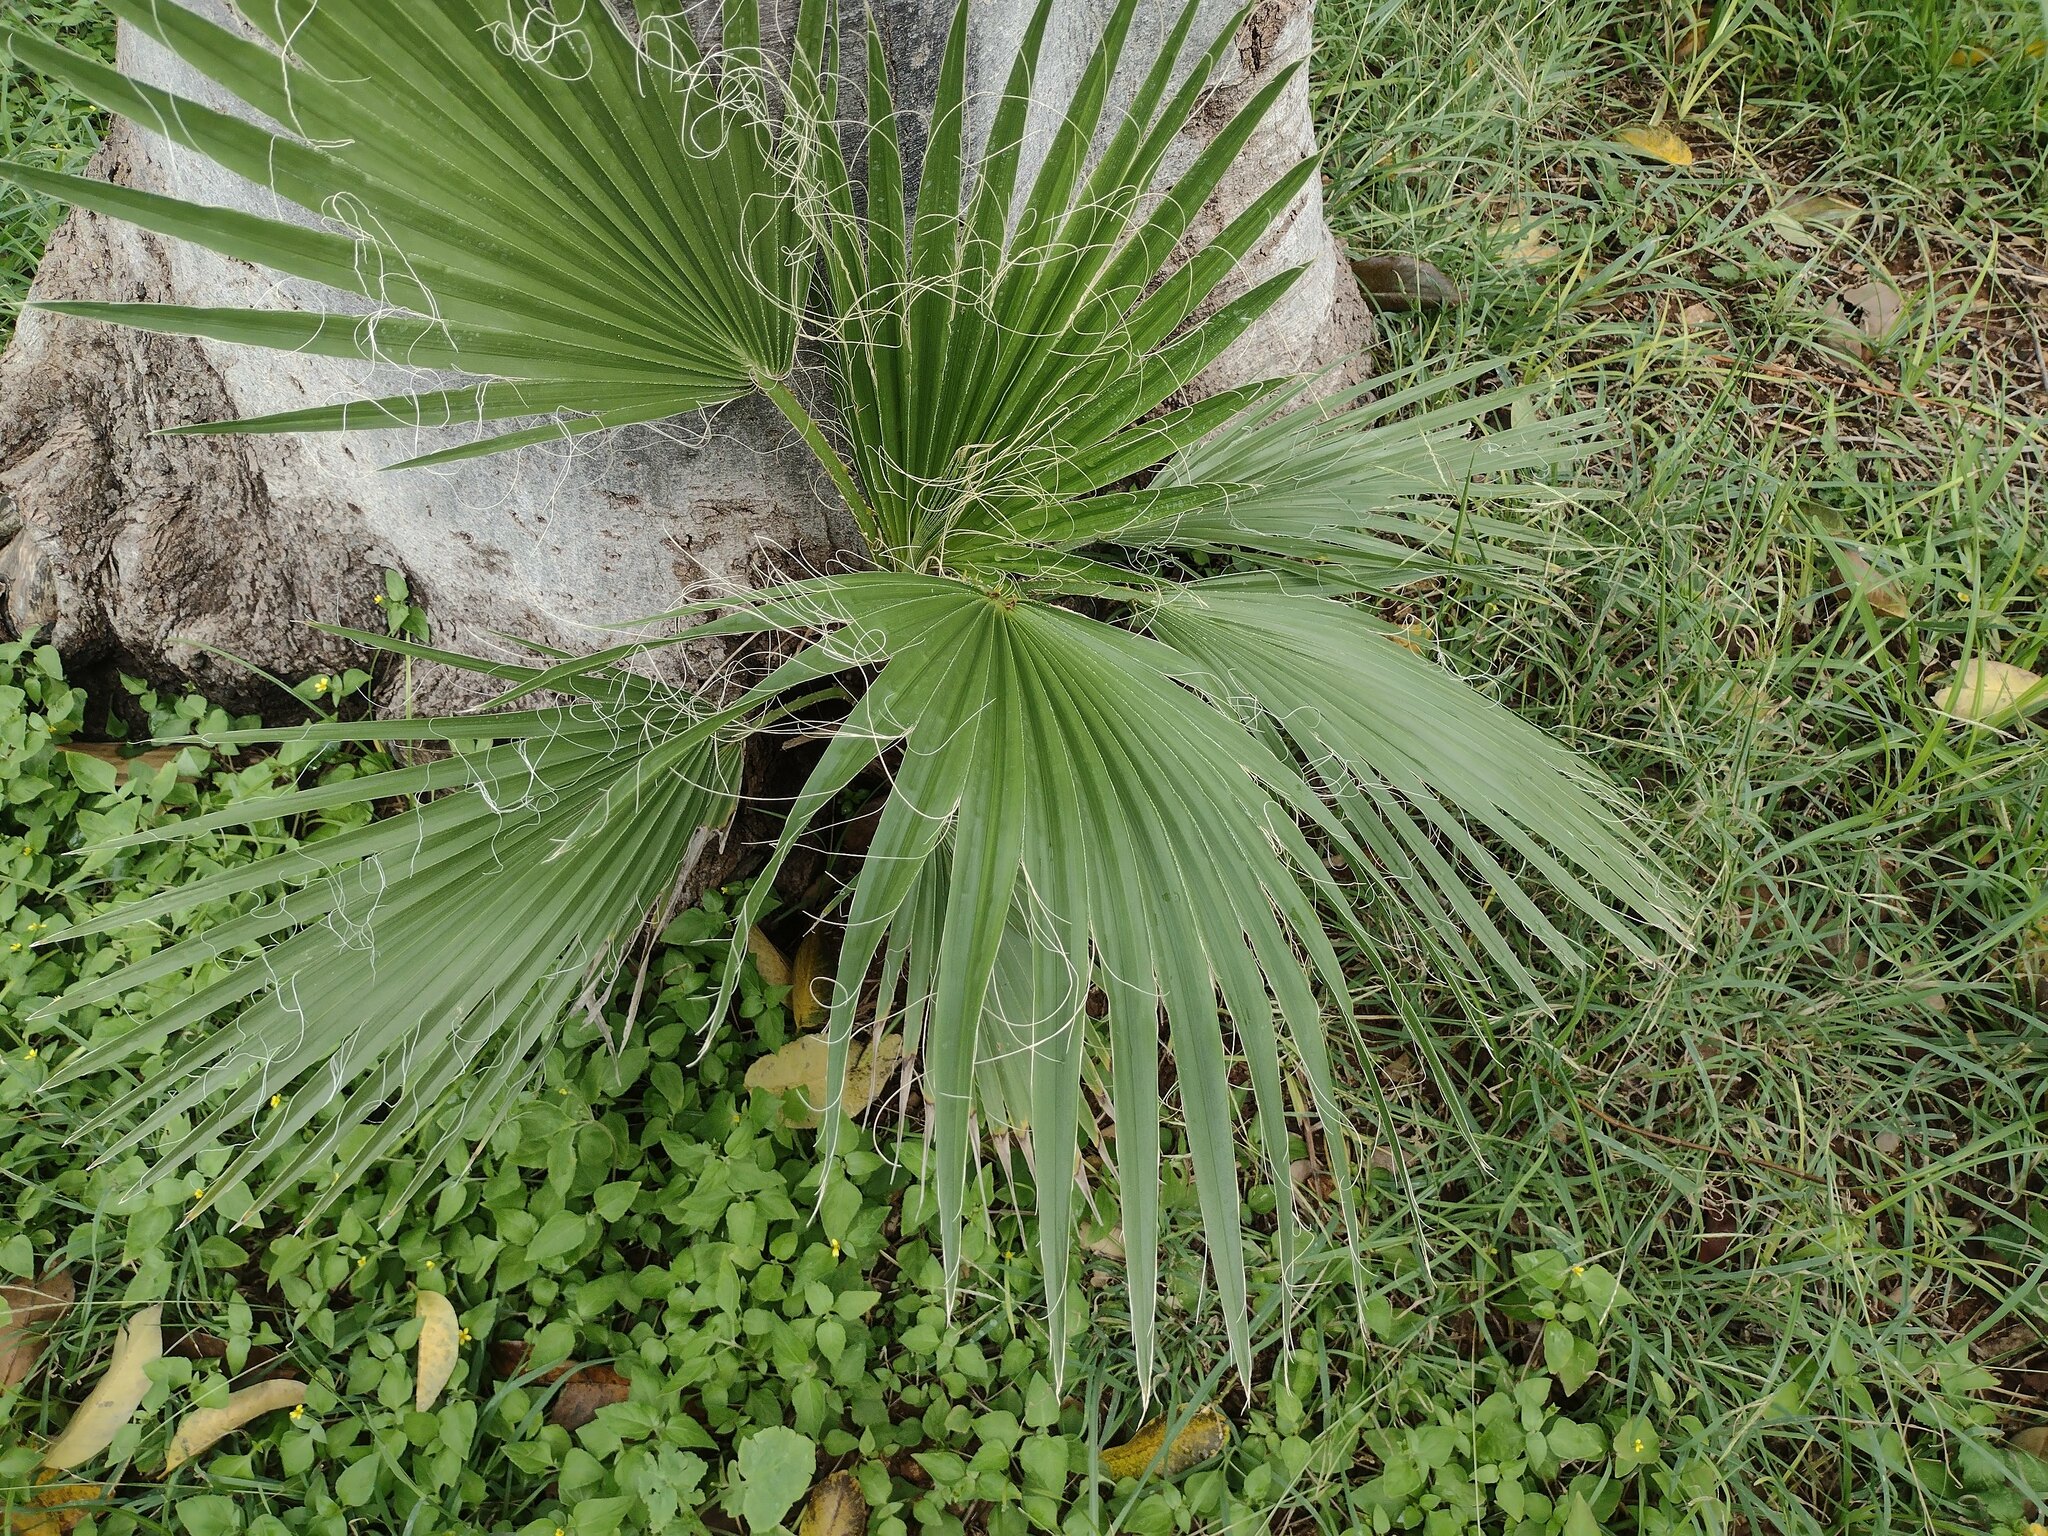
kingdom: Plantae
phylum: Tracheophyta
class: Liliopsida
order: Arecales
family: Arecaceae
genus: Washingtonia
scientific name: Washingtonia robusta
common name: Mexican fan palm
